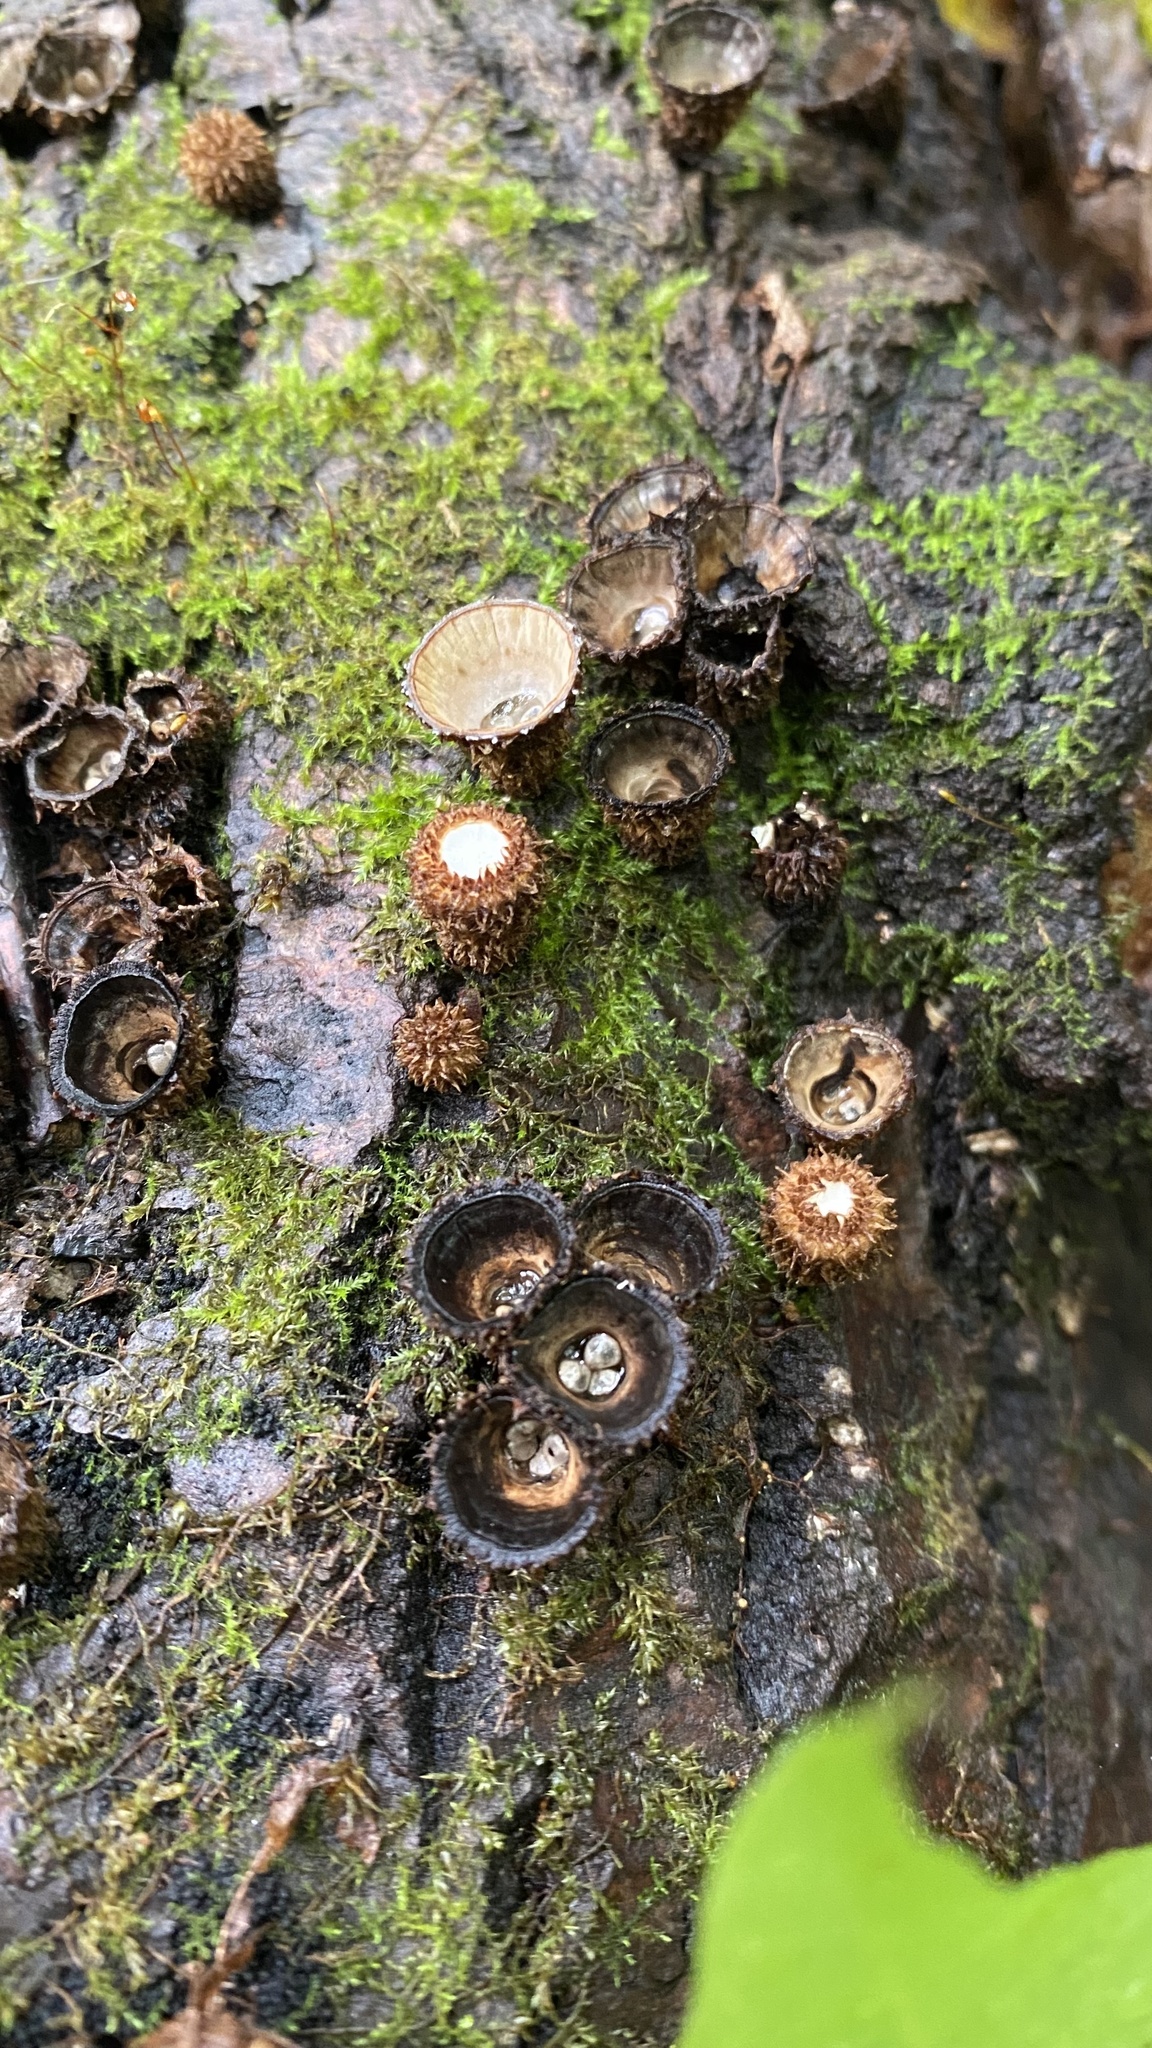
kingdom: Fungi
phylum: Basidiomycota
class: Agaricomycetes
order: Agaricales
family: Agaricaceae
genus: Cyathus
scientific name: Cyathus striatus
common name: Fluted bird's nest
